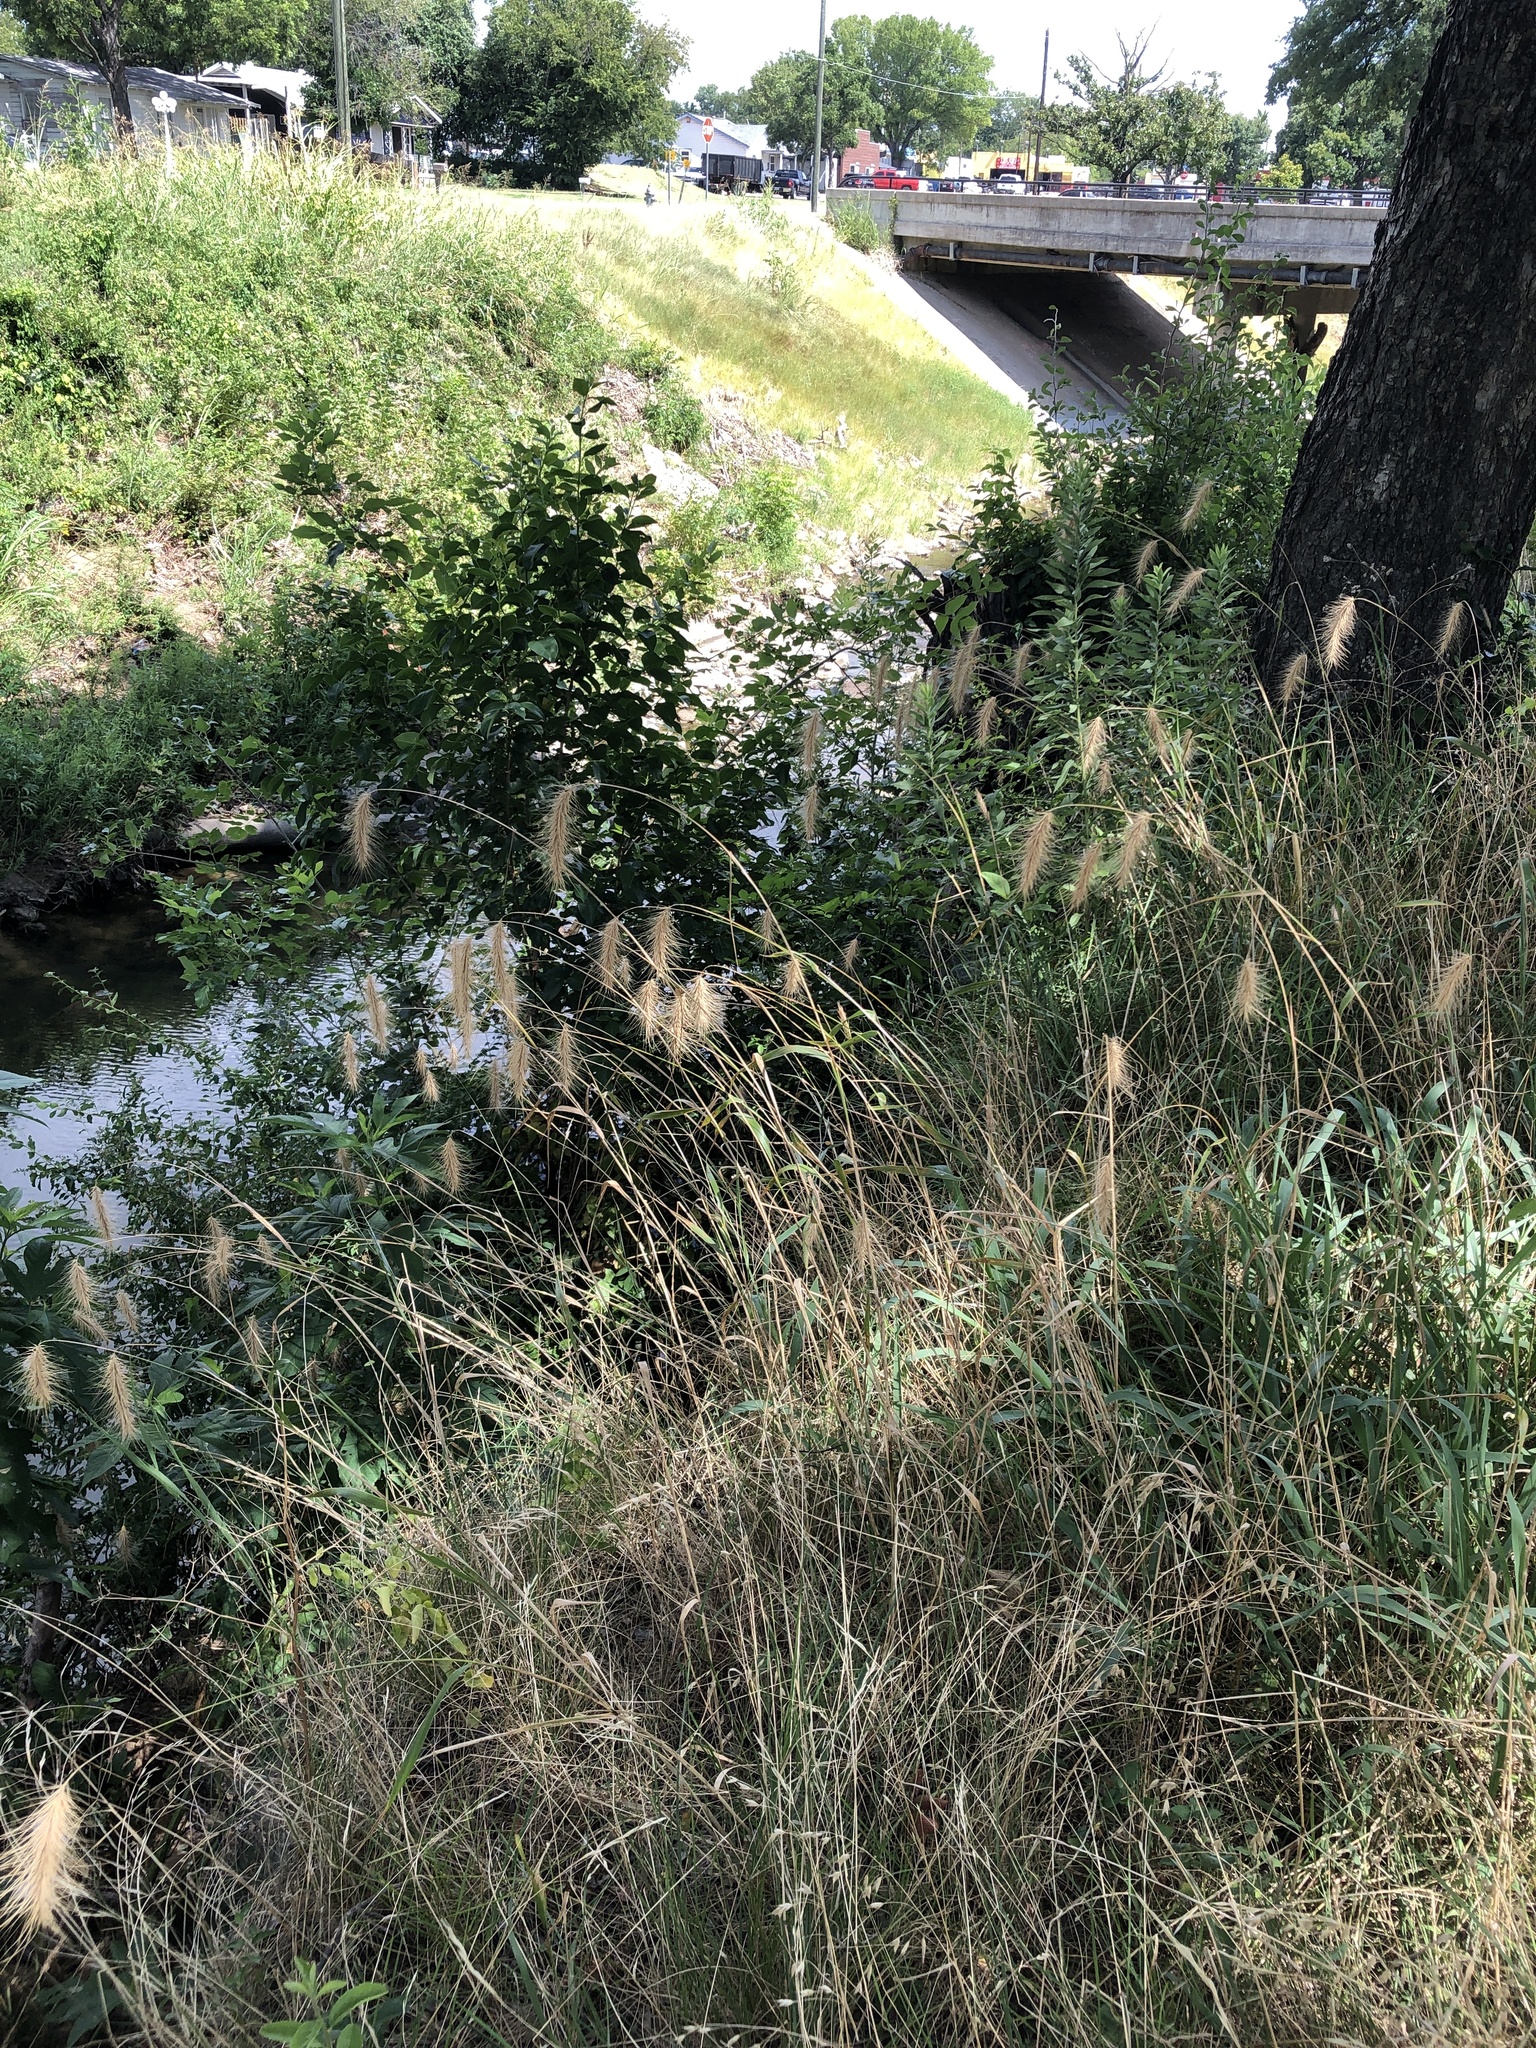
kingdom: Plantae
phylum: Tracheophyta
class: Liliopsida
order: Poales
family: Poaceae
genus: Elymus
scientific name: Elymus canadensis
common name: Canada wild rye
